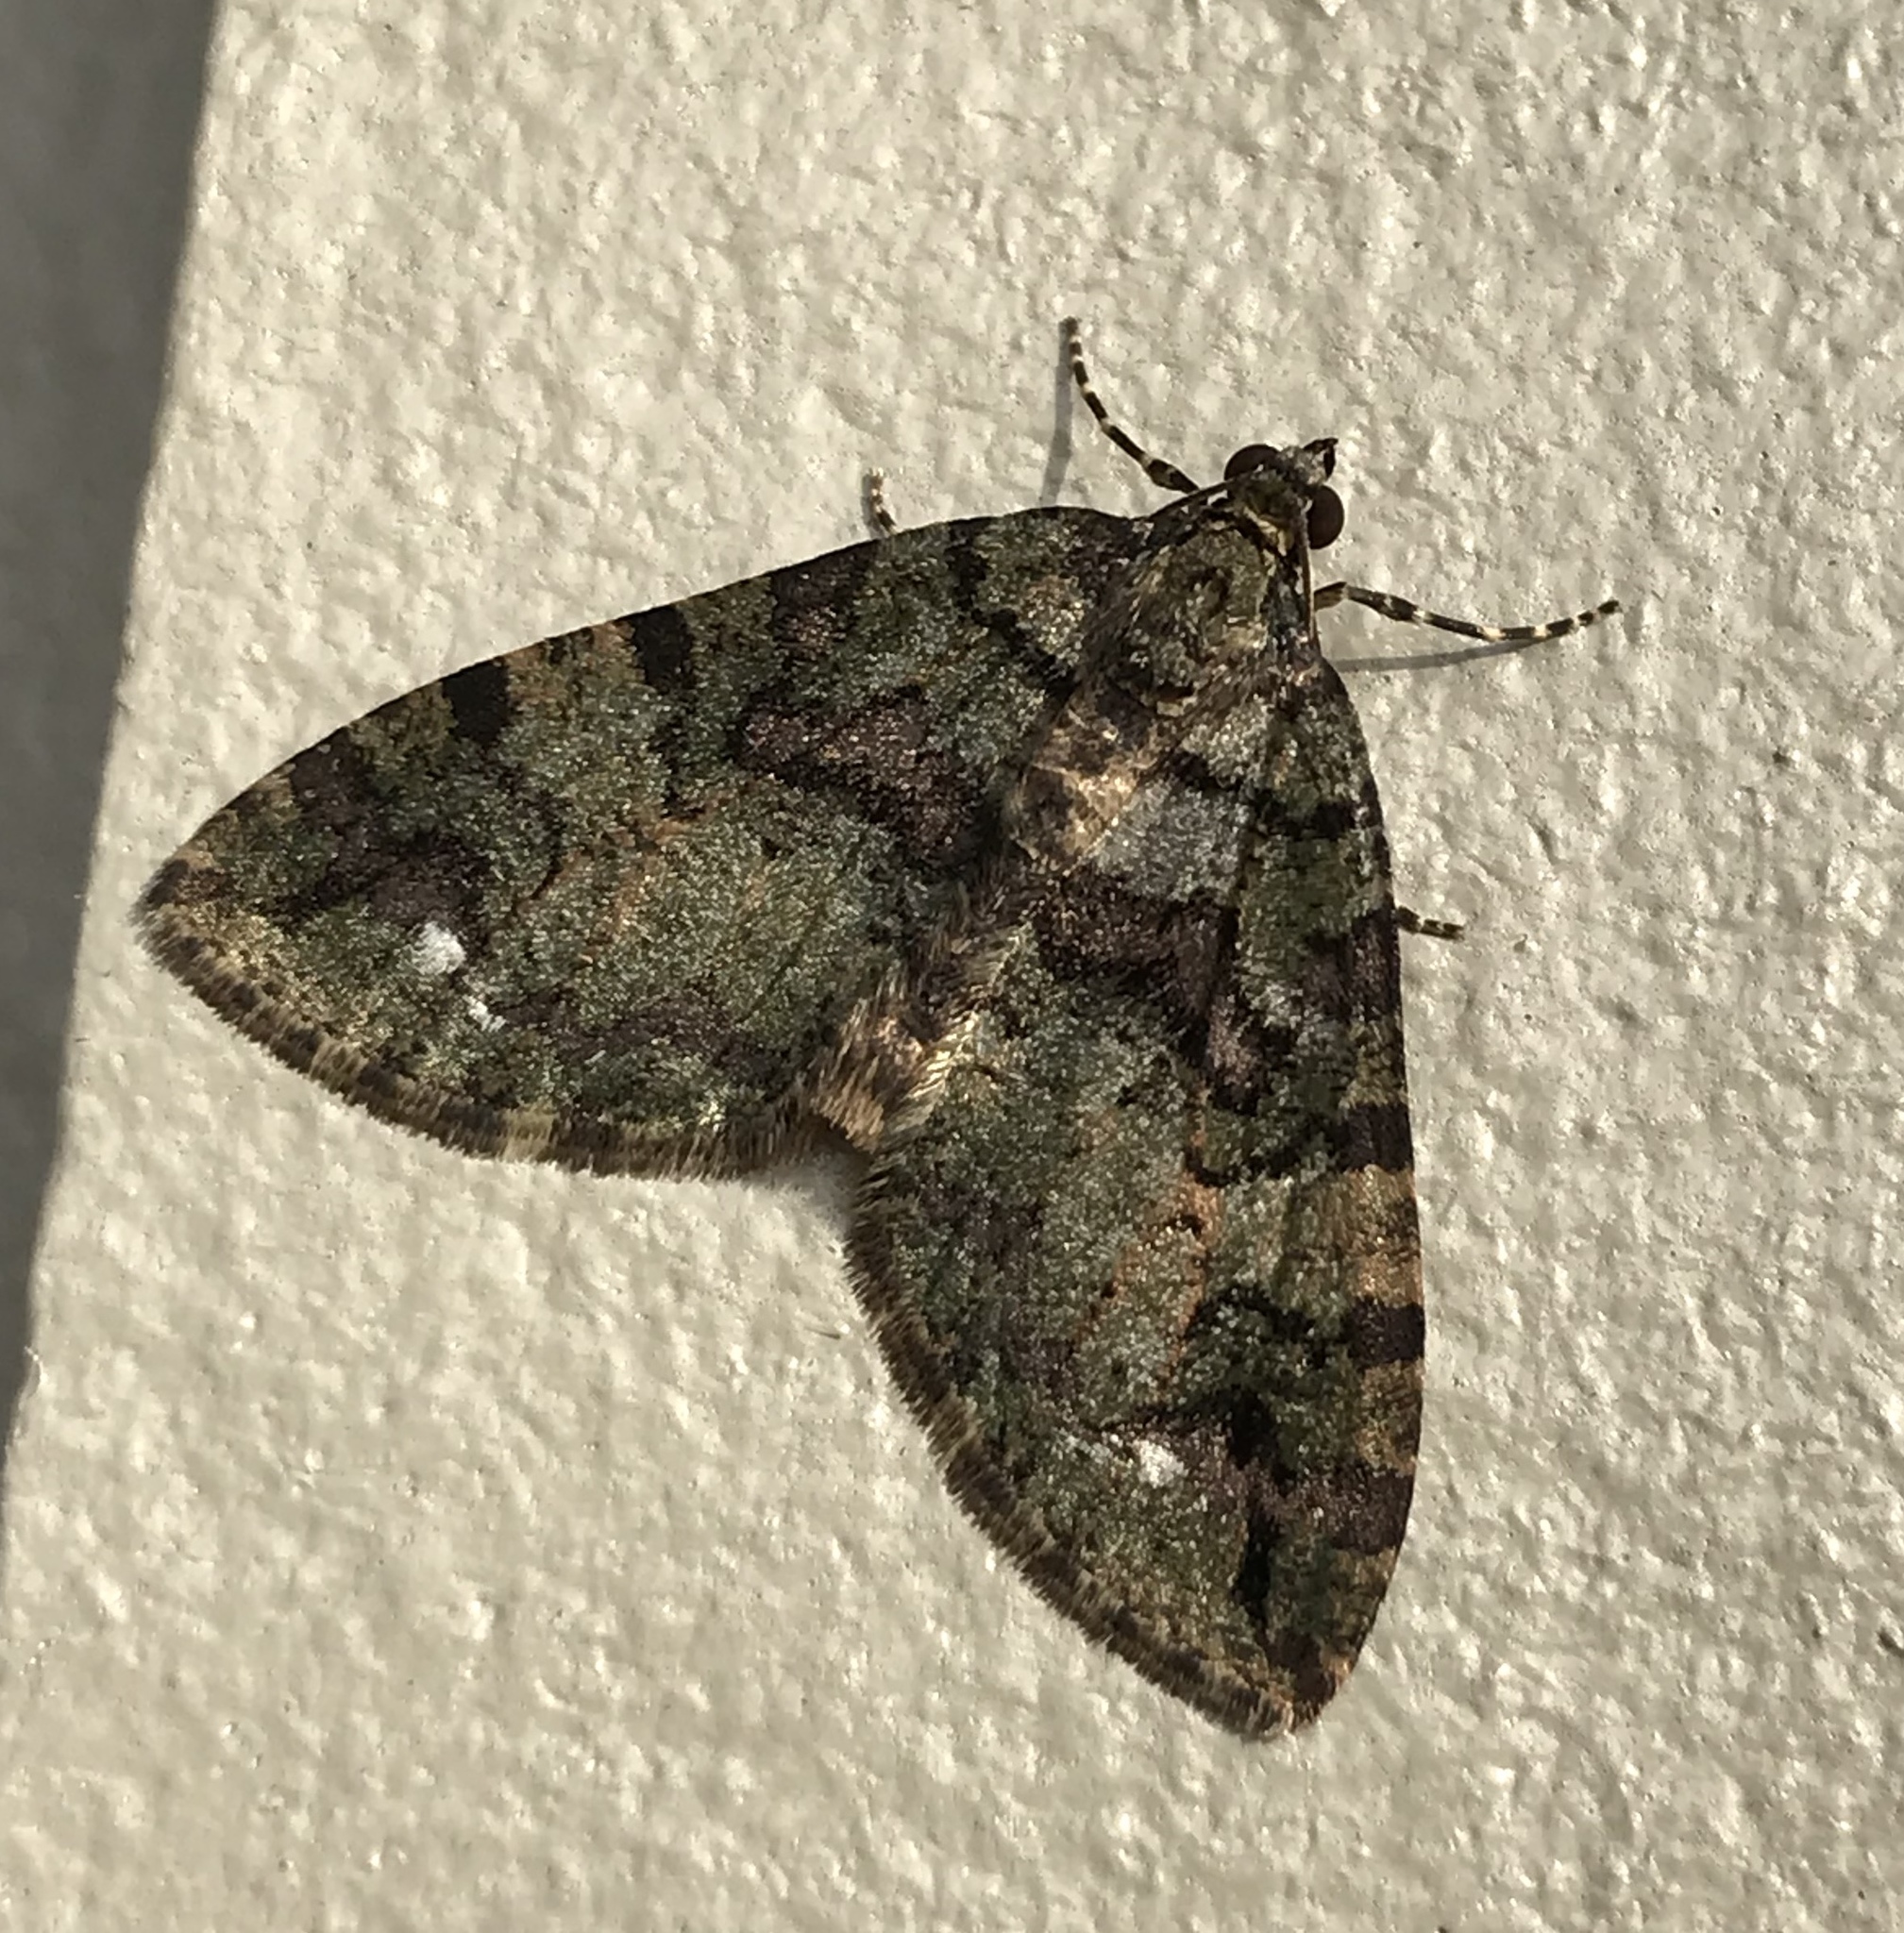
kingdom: Animalia
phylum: Arthropoda
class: Insecta
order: Lepidoptera
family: Geometridae
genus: Hydriomena
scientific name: Hydriomena albifasciata
